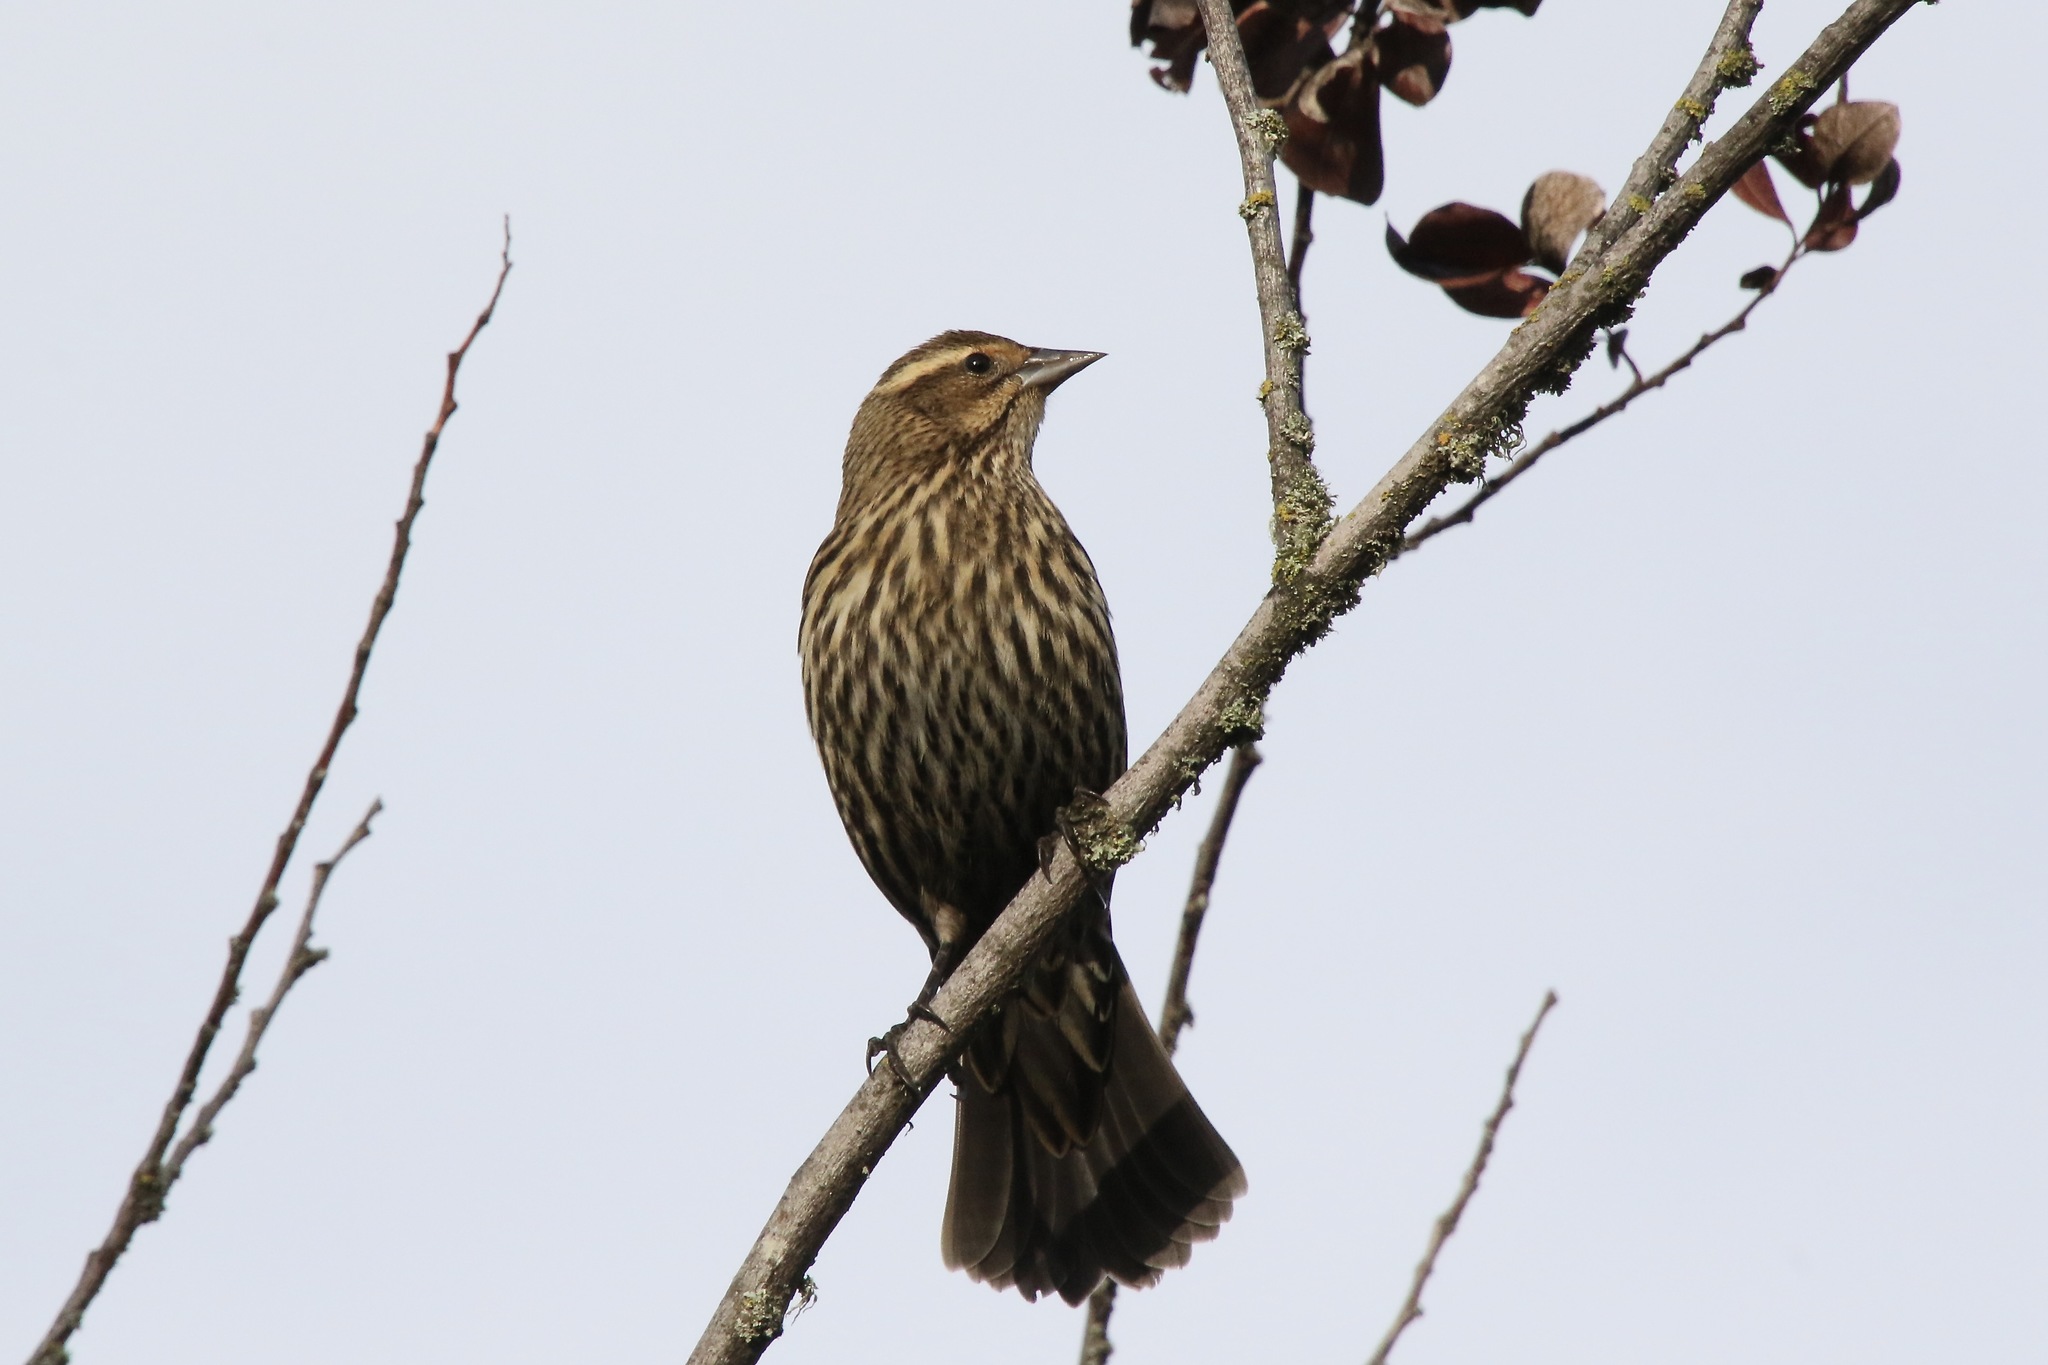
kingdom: Animalia
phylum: Chordata
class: Aves
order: Passeriformes
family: Icteridae
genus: Agelaius
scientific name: Agelaius phoeniceus
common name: Red-winged blackbird
